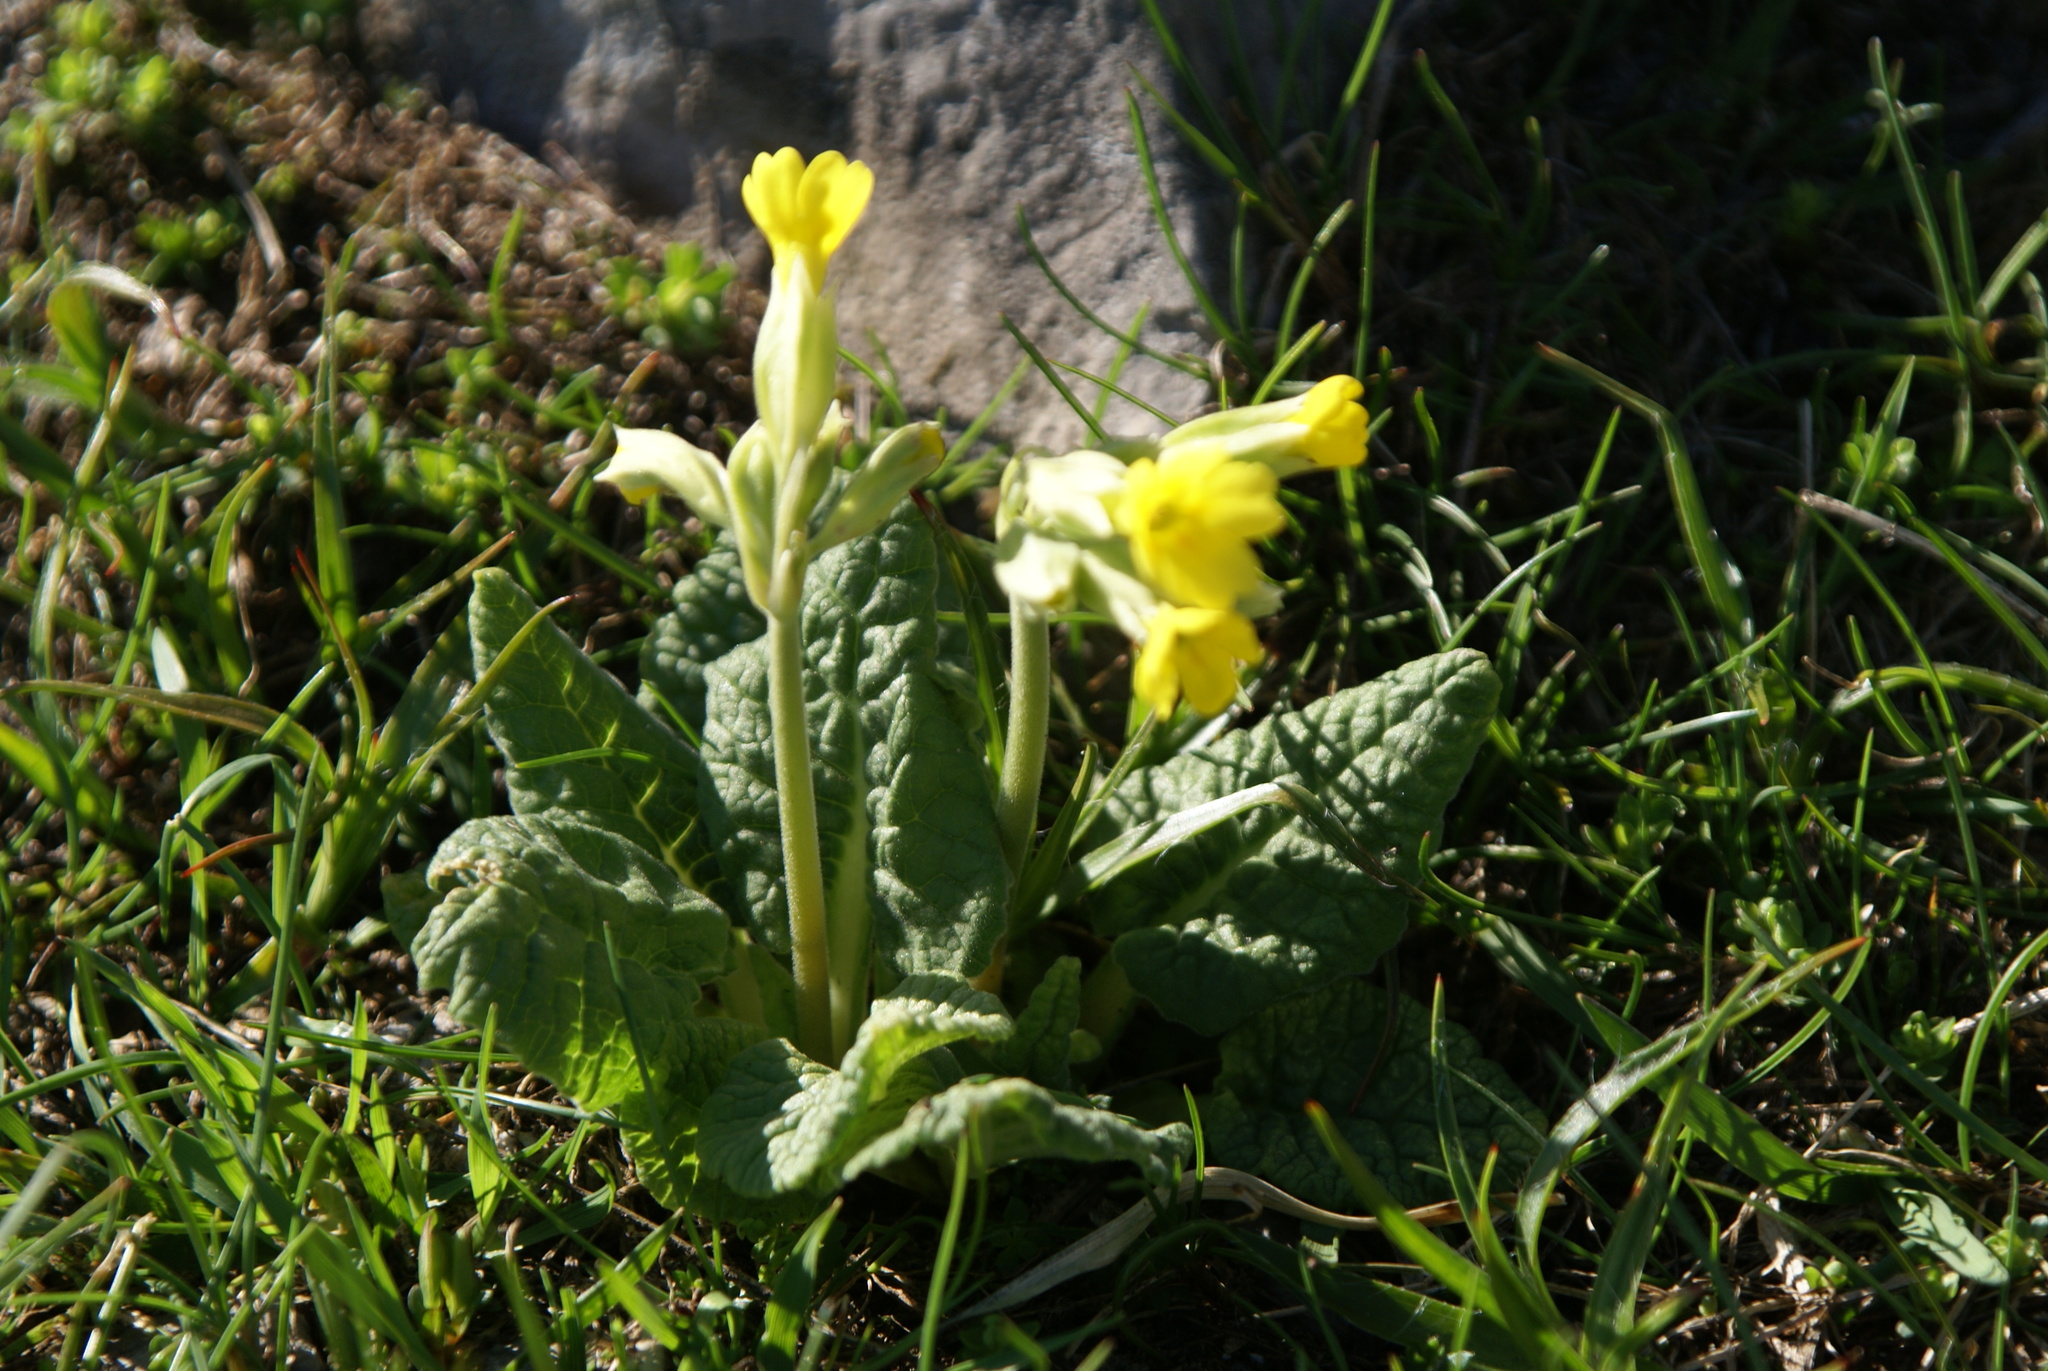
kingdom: Plantae
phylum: Tracheophyta
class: Magnoliopsida
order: Ericales
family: Primulaceae
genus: Primula
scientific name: Primula veris
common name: Cowslip
